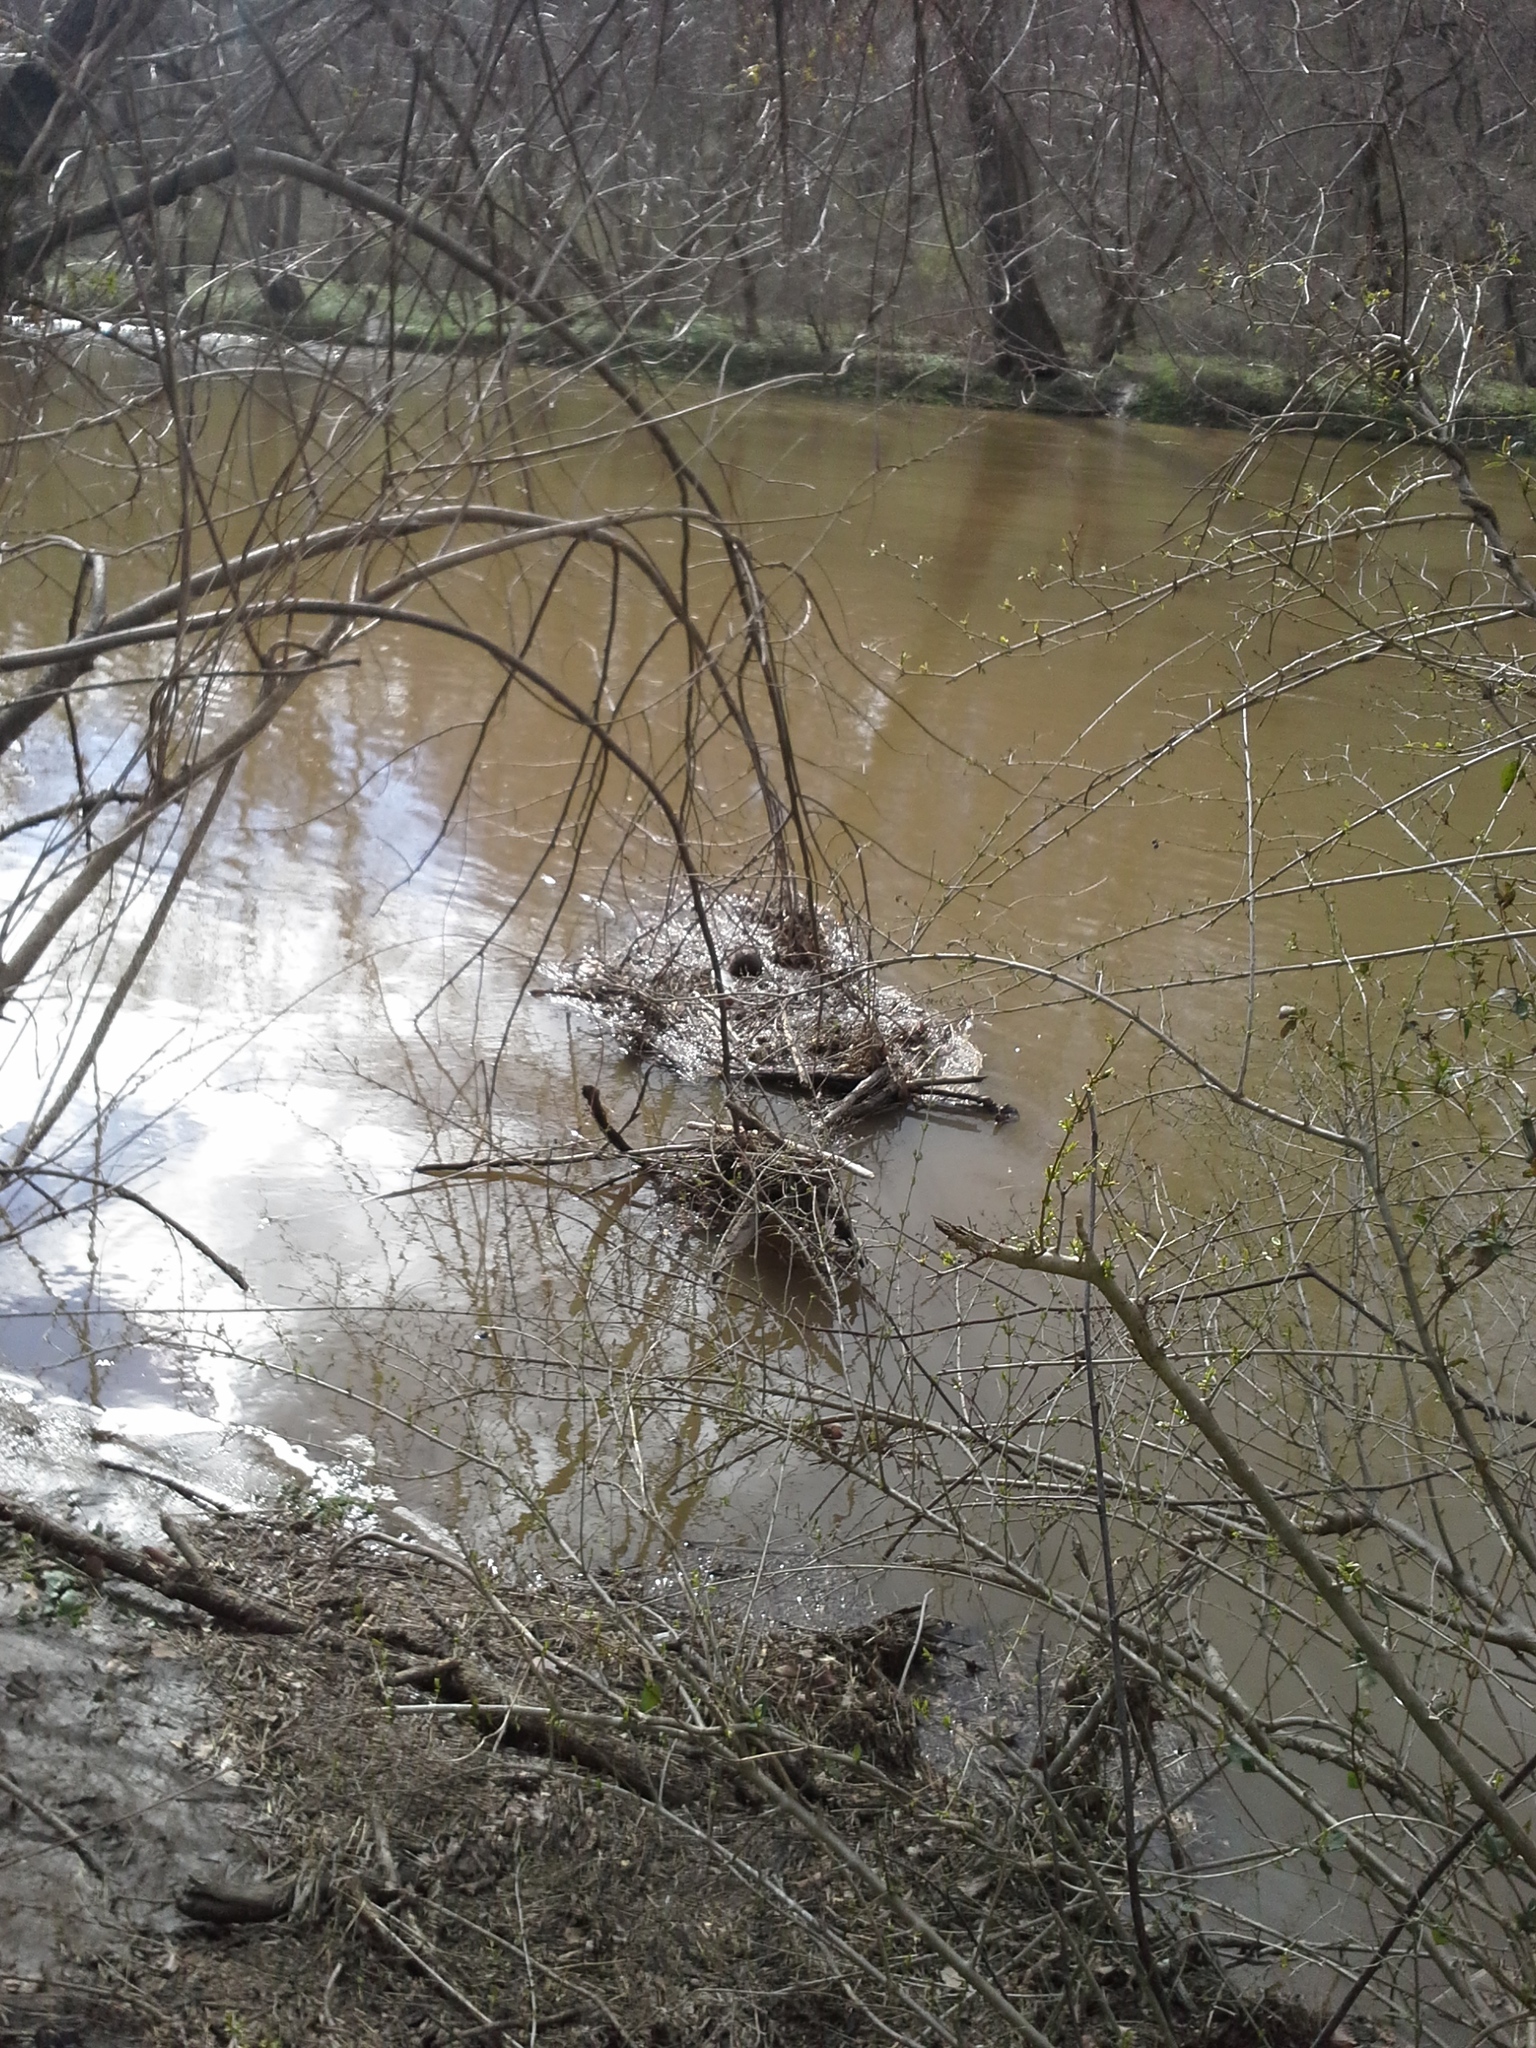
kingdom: Animalia
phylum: Chordata
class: Mammalia
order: Rodentia
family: Cricetidae
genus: Ondatra
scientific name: Ondatra zibethicus
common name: Muskrat
